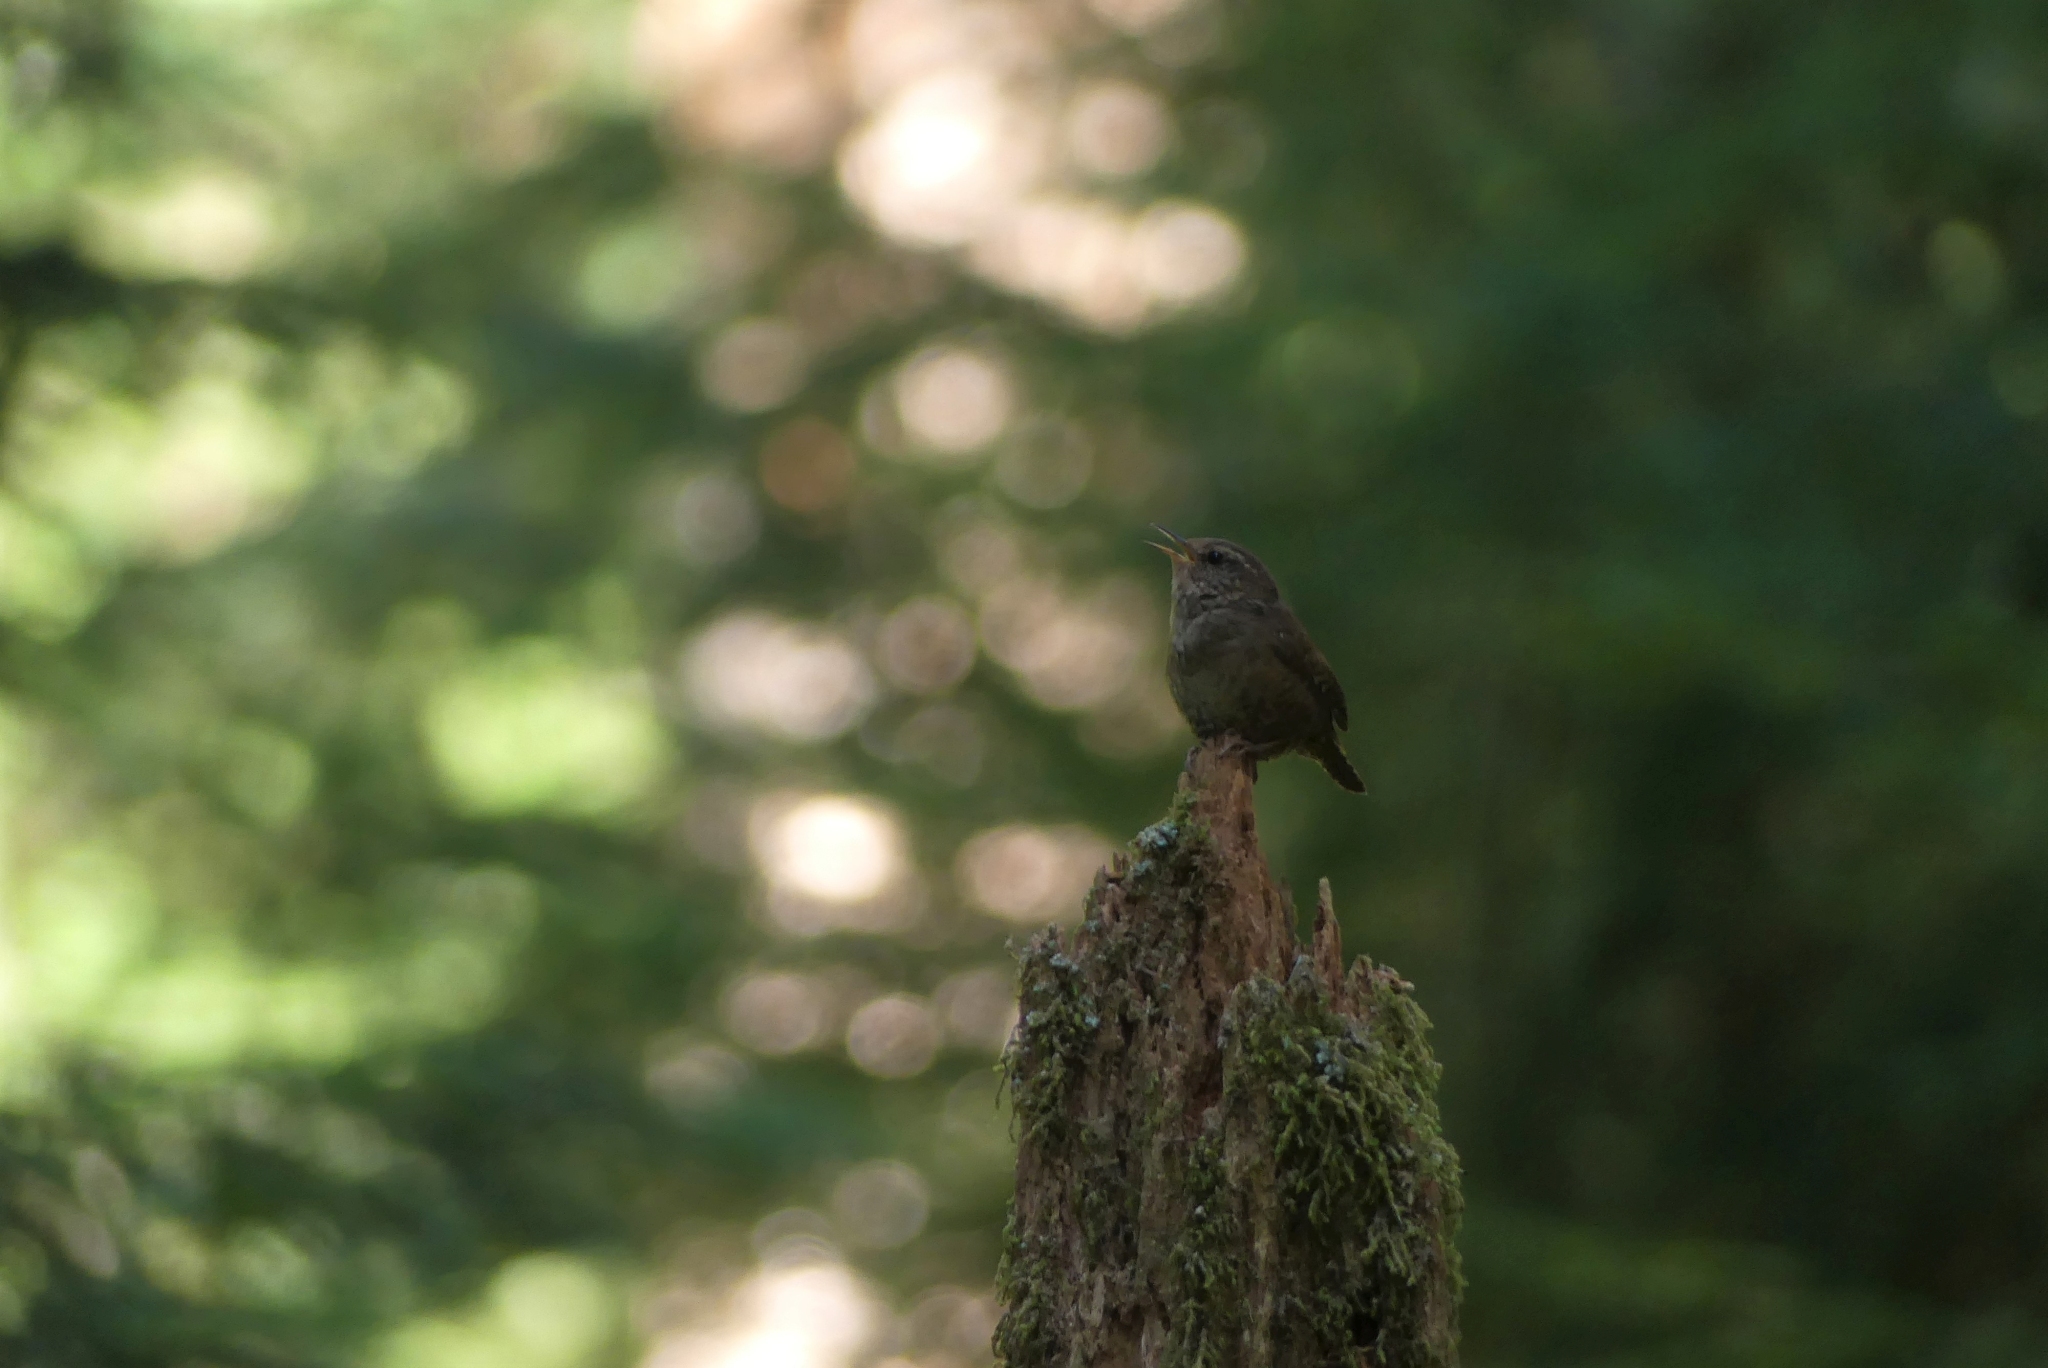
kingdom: Animalia
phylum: Chordata
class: Aves
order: Passeriformes
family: Troglodytidae
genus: Troglodytes
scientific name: Troglodytes pacificus
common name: Pacific wren
